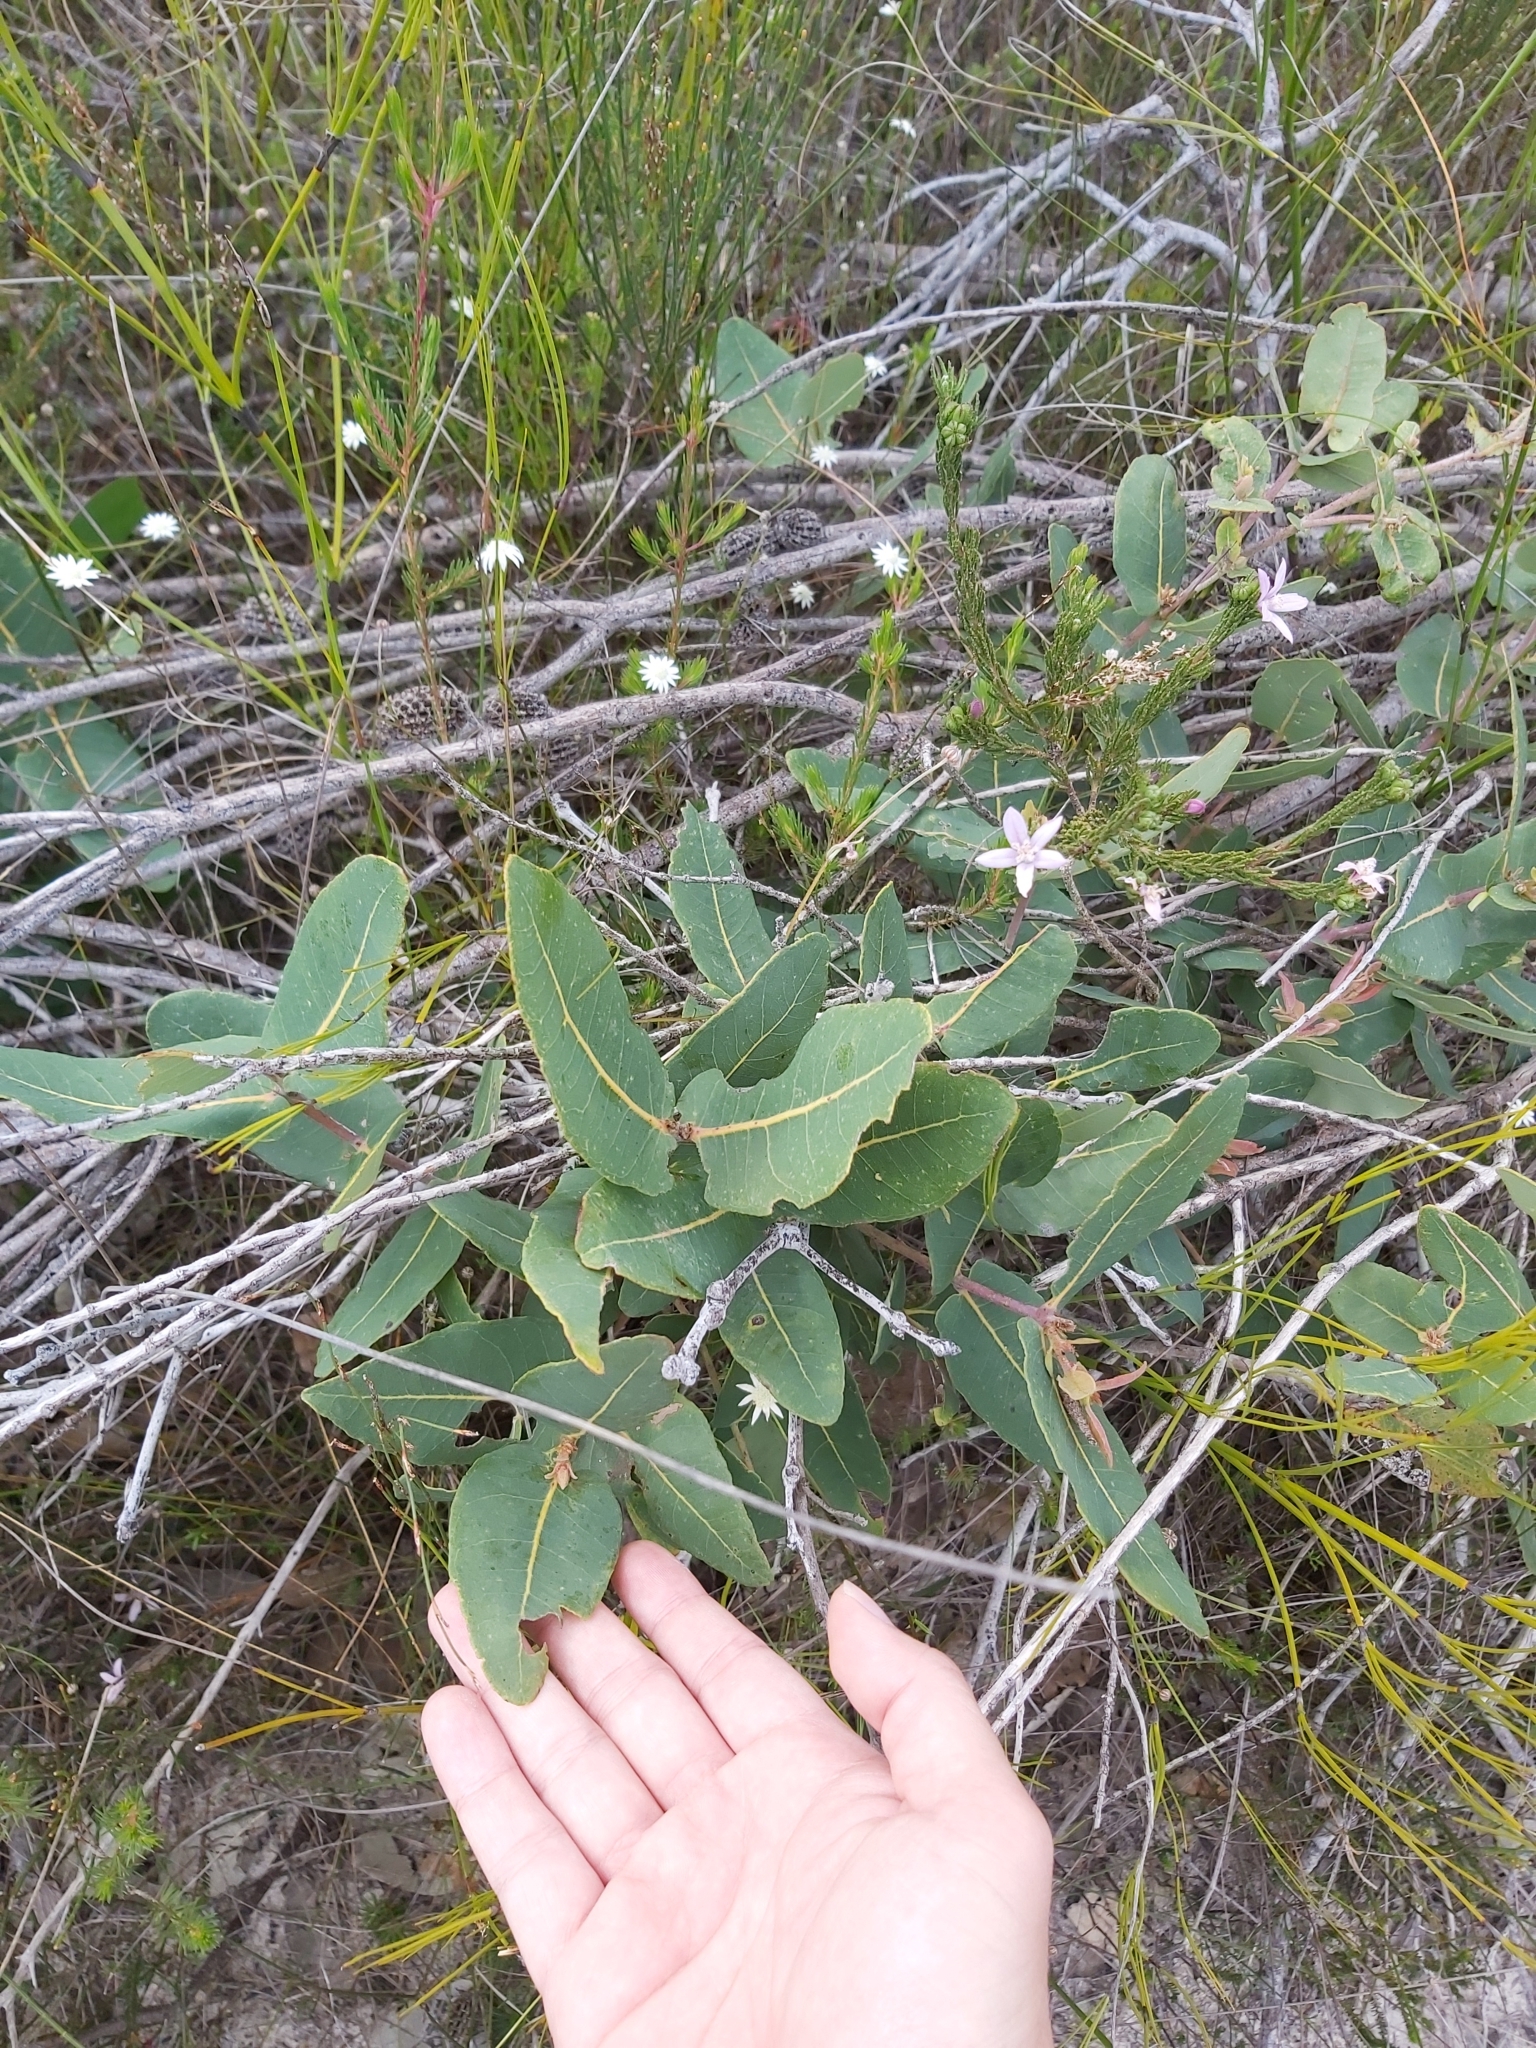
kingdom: Plantae
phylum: Tracheophyta
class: Magnoliopsida
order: Myrtales
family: Myrtaceae
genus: Angophora
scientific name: Angophora hispida
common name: Dwarf-apple
